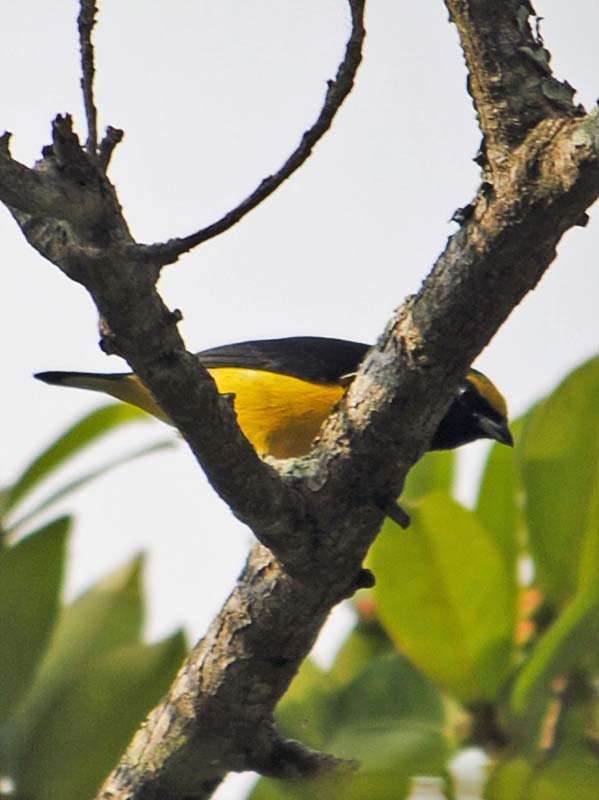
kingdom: Animalia
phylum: Chordata
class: Aves
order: Passeriformes
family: Fringillidae
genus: Euphonia
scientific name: Euphonia affinis
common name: Scrub euphonia
